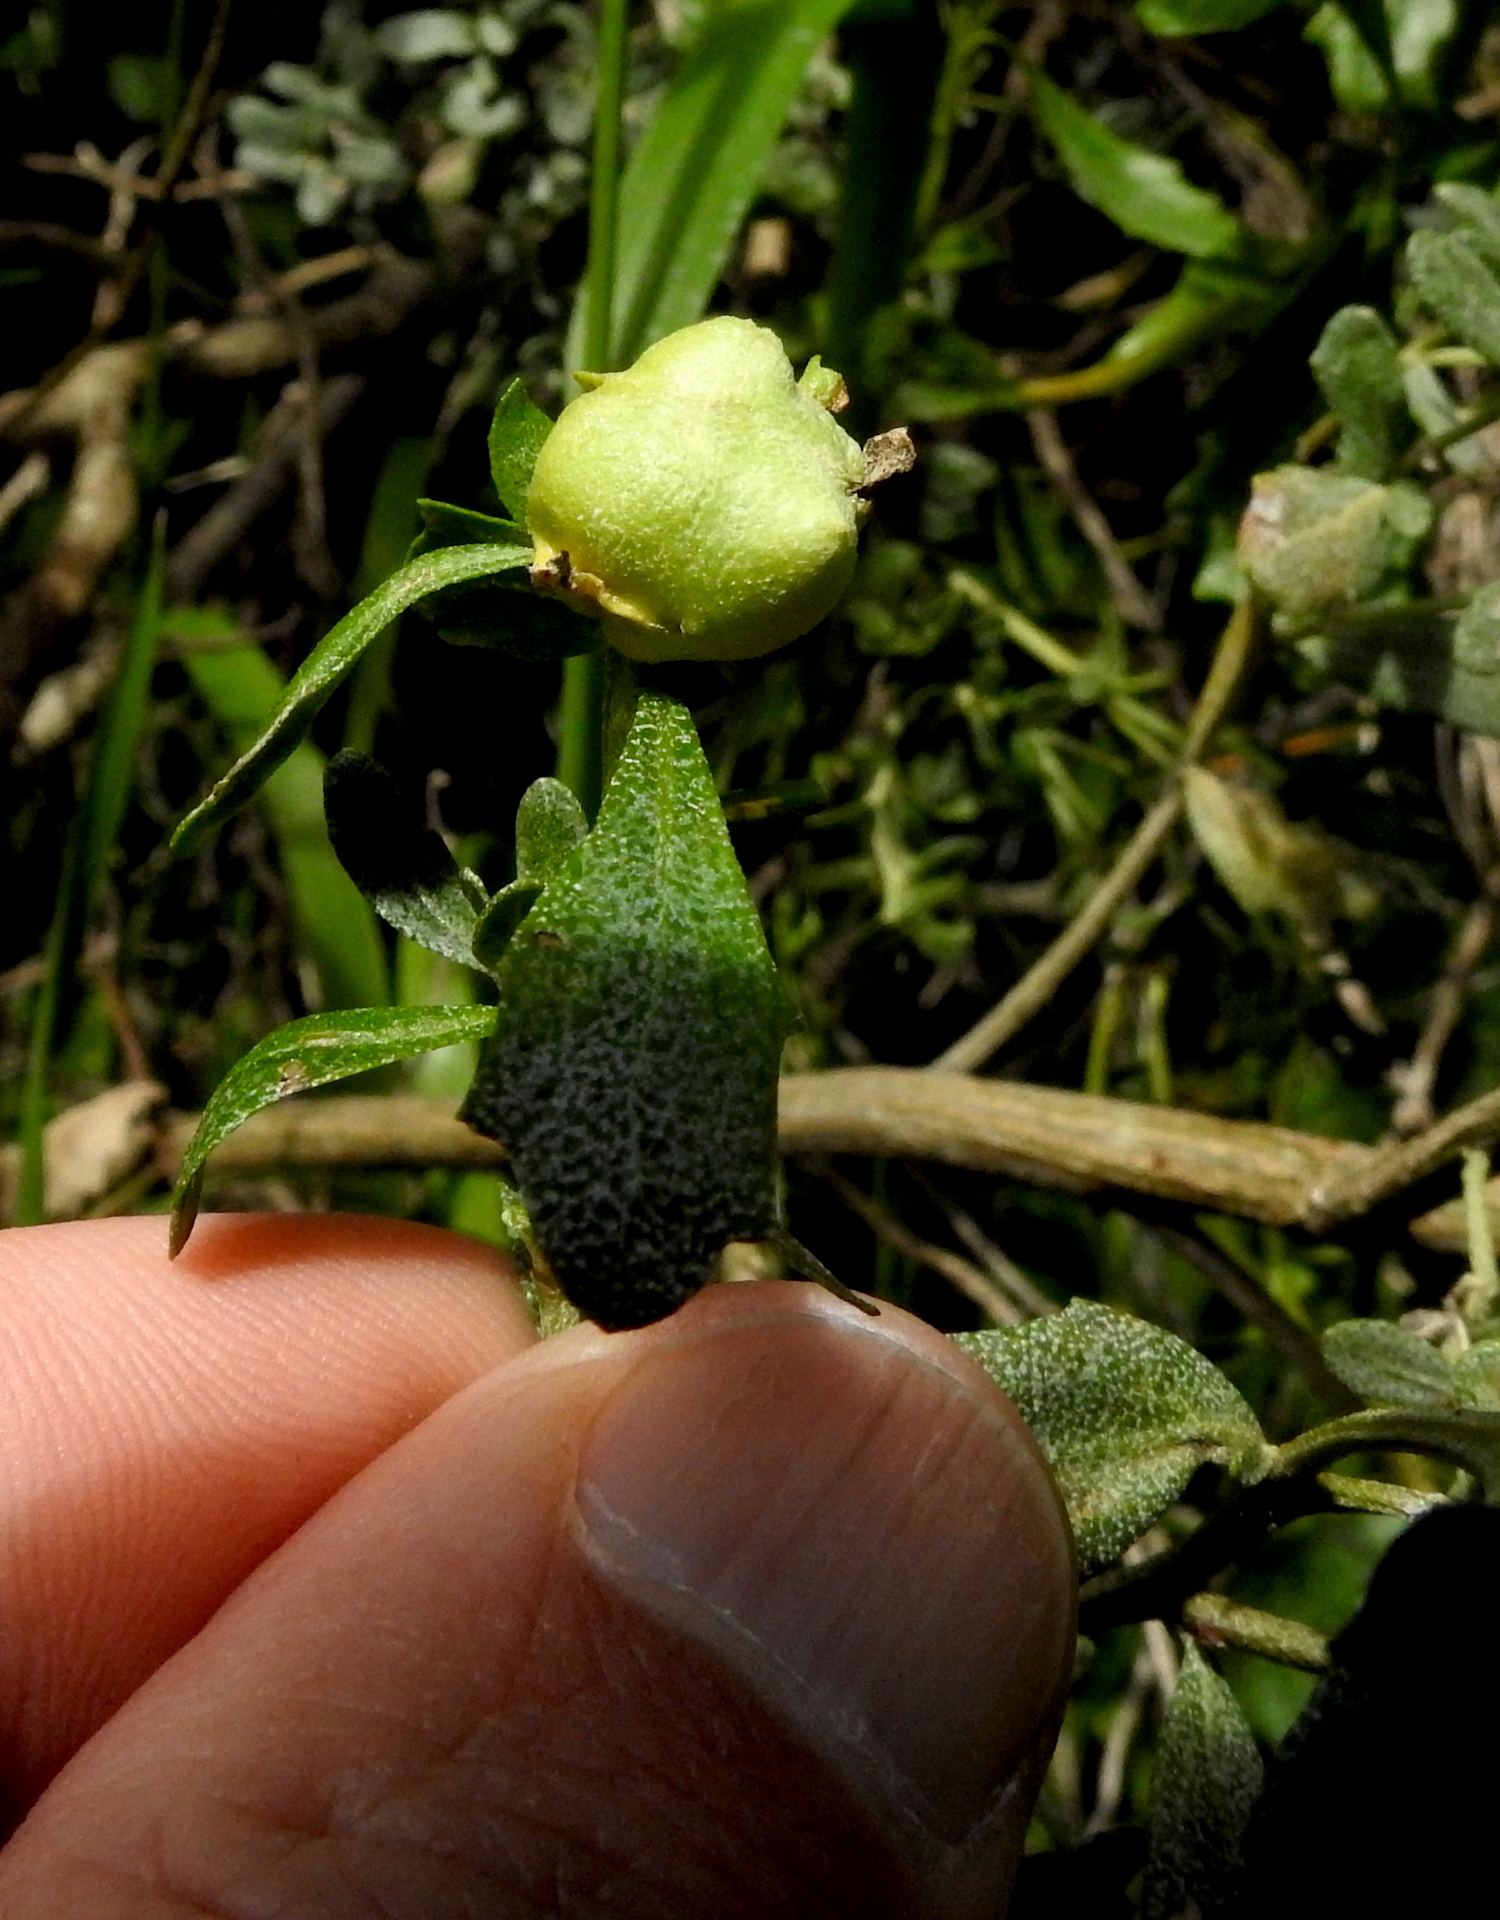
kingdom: Animalia
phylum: Arthropoda
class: Insecta
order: Diptera
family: Cecidomyiidae
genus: Rhopalomyia
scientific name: Rhopalomyia californica
